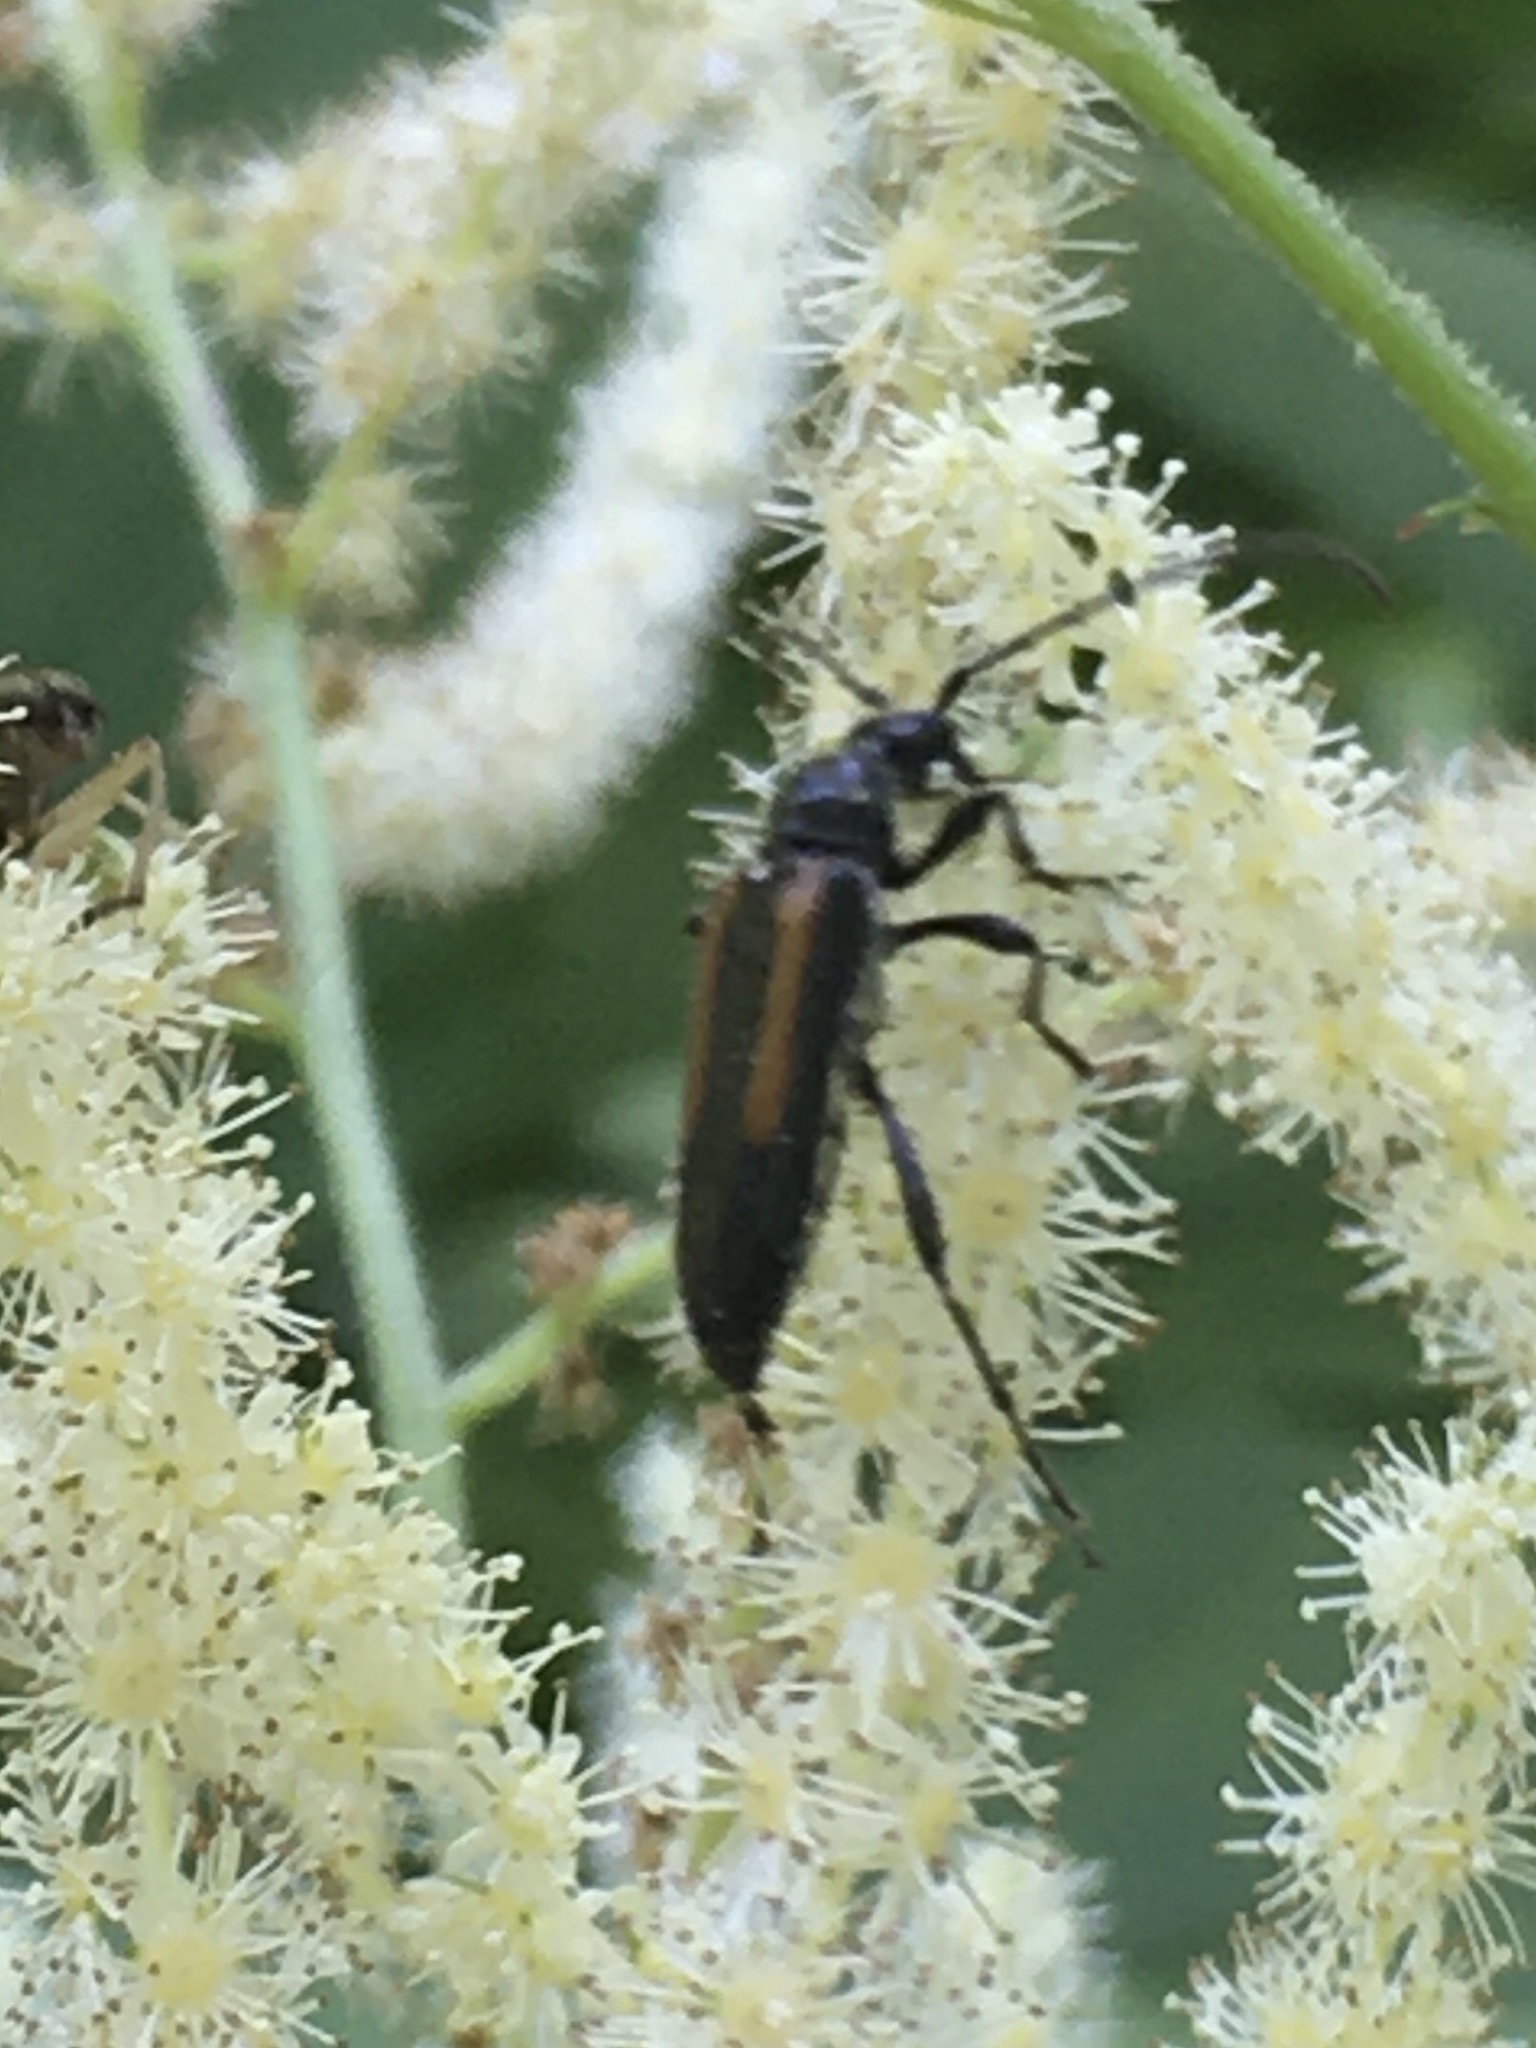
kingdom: Animalia
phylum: Arthropoda
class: Insecta
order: Coleoptera
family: Cerambycidae
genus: Strangalepta
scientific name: Strangalepta abbreviata
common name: Strangalepta flower longhorn beetle
